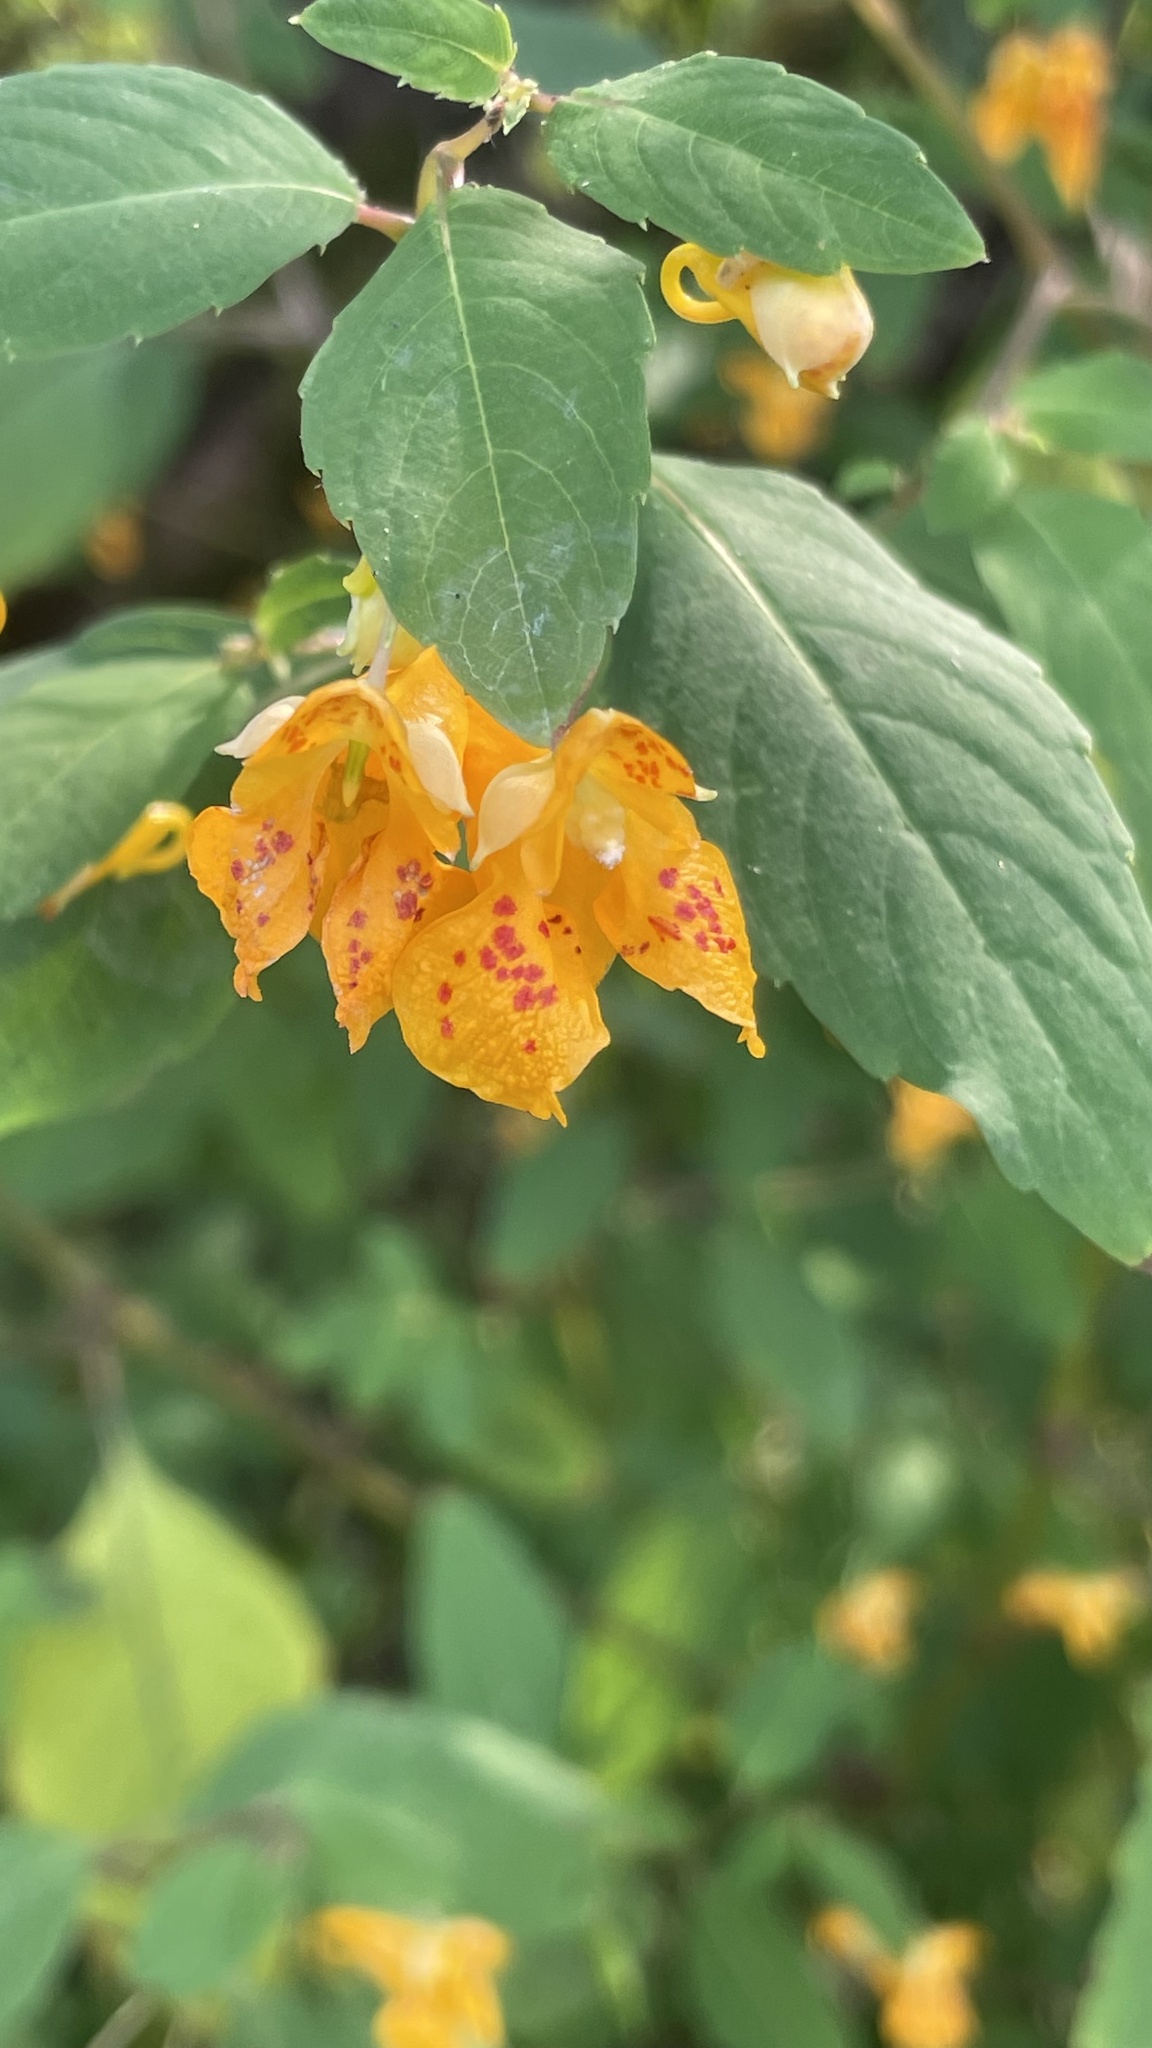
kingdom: Plantae
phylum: Tracheophyta
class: Magnoliopsida
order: Ericales
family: Balsaminaceae
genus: Impatiens
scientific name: Impatiens capensis
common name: Orange balsam
